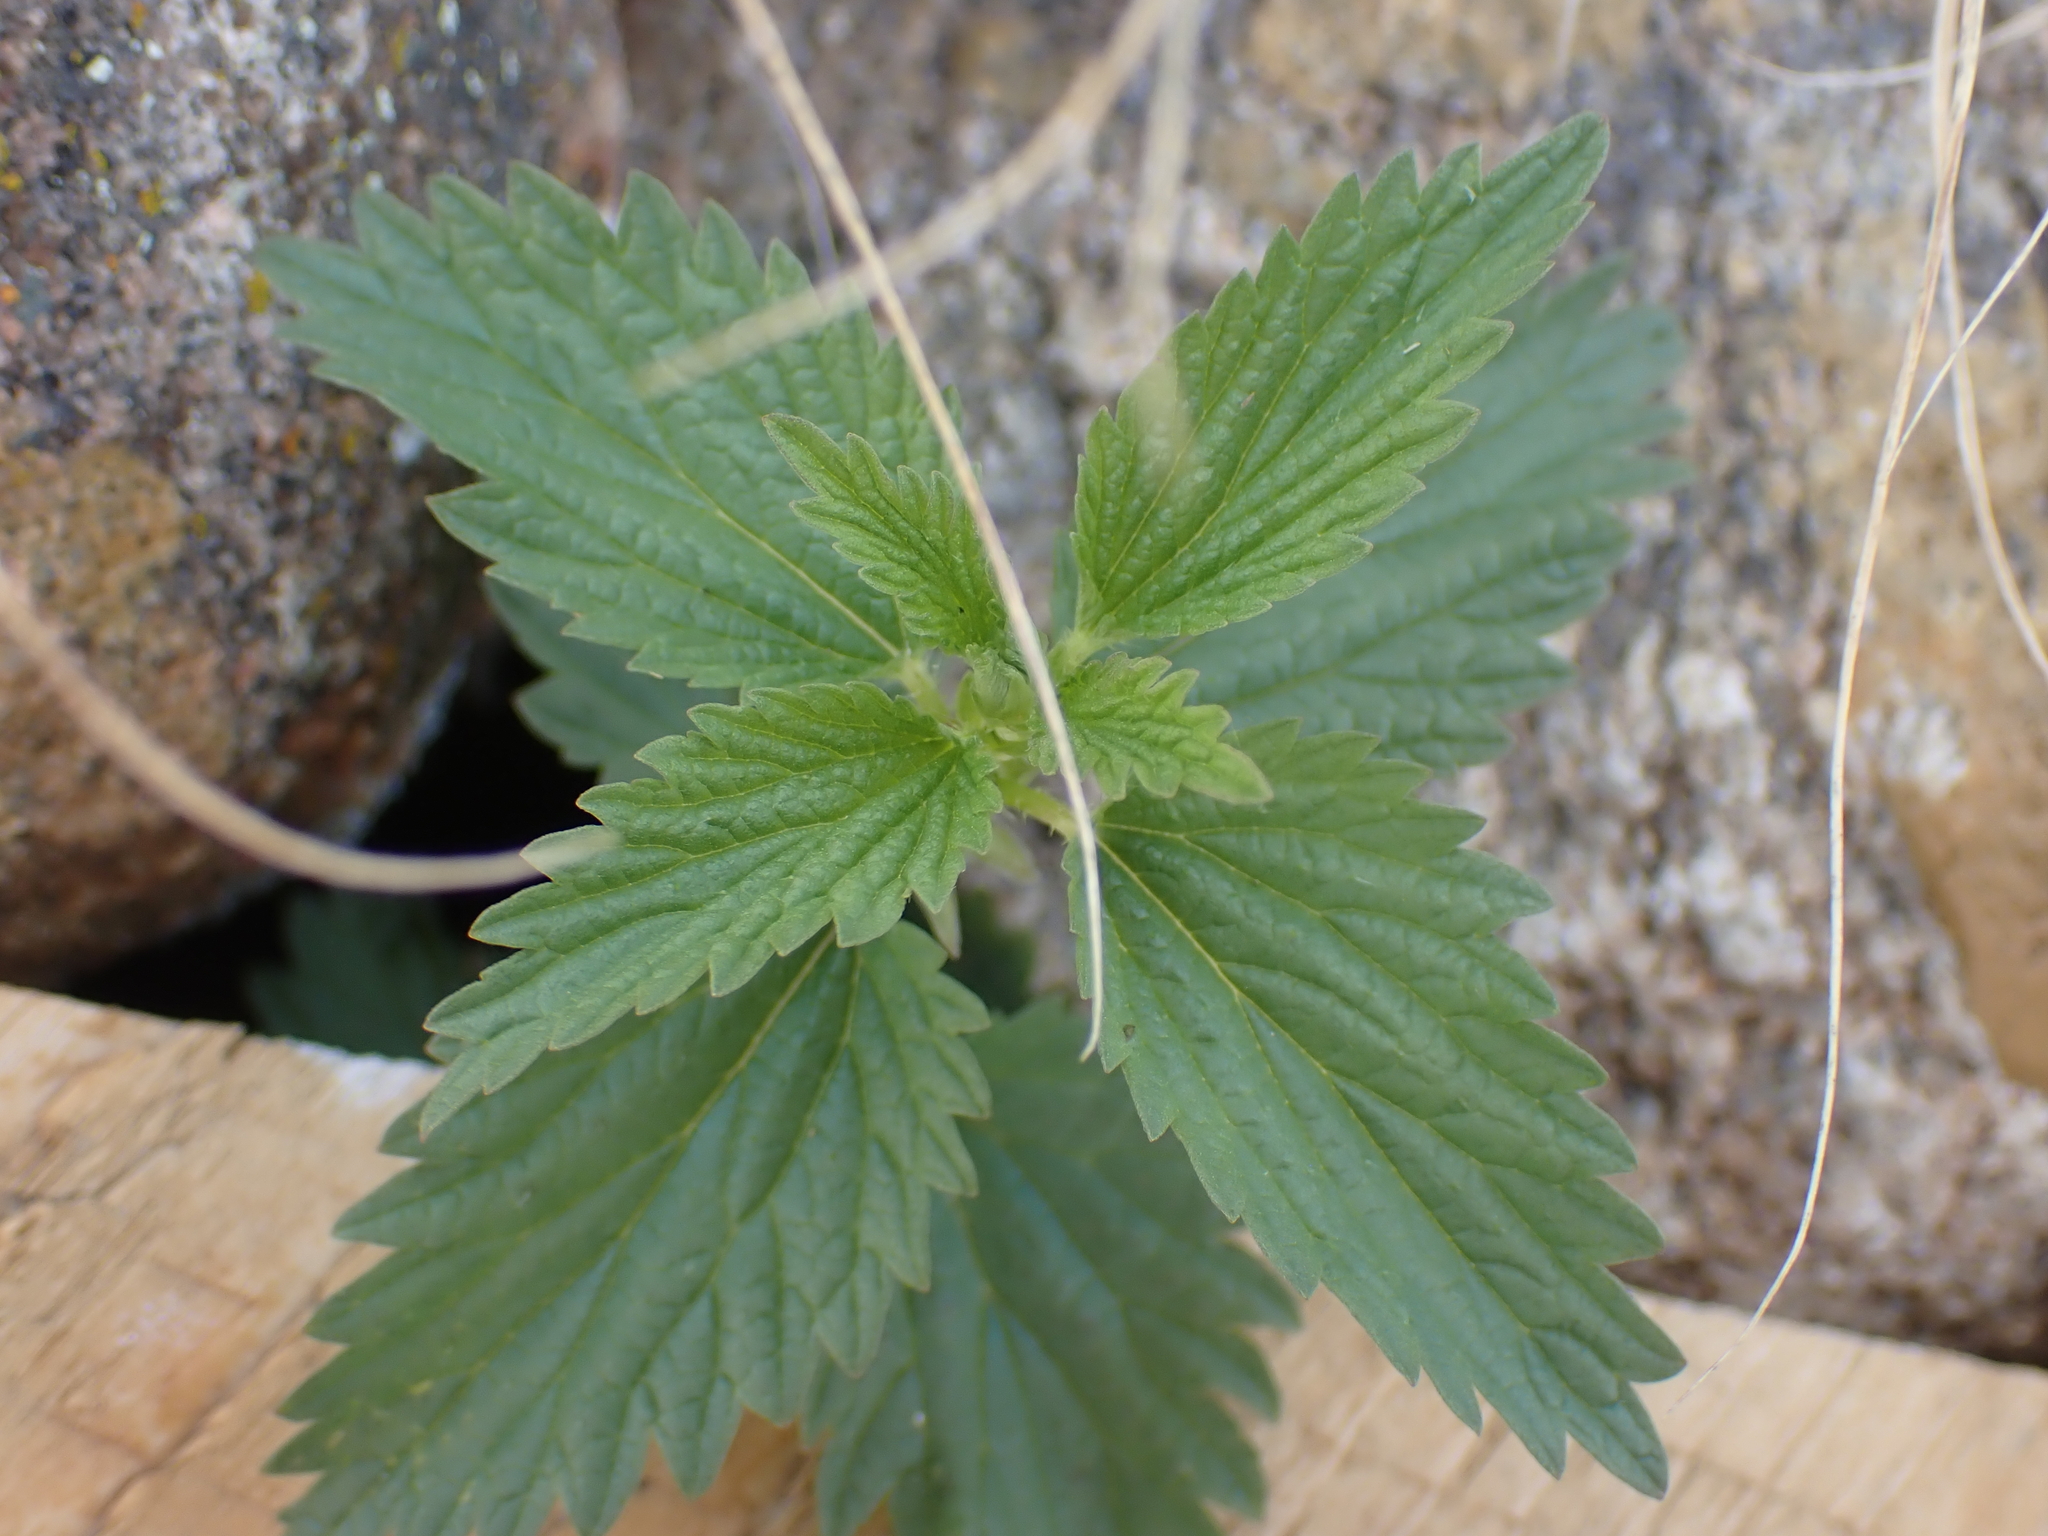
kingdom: Plantae
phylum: Tracheophyta
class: Magnoliopsida
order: Rosales
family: Urticaceae
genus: Urtica
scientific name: Urtica gracilis
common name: Slender stinging nettle
